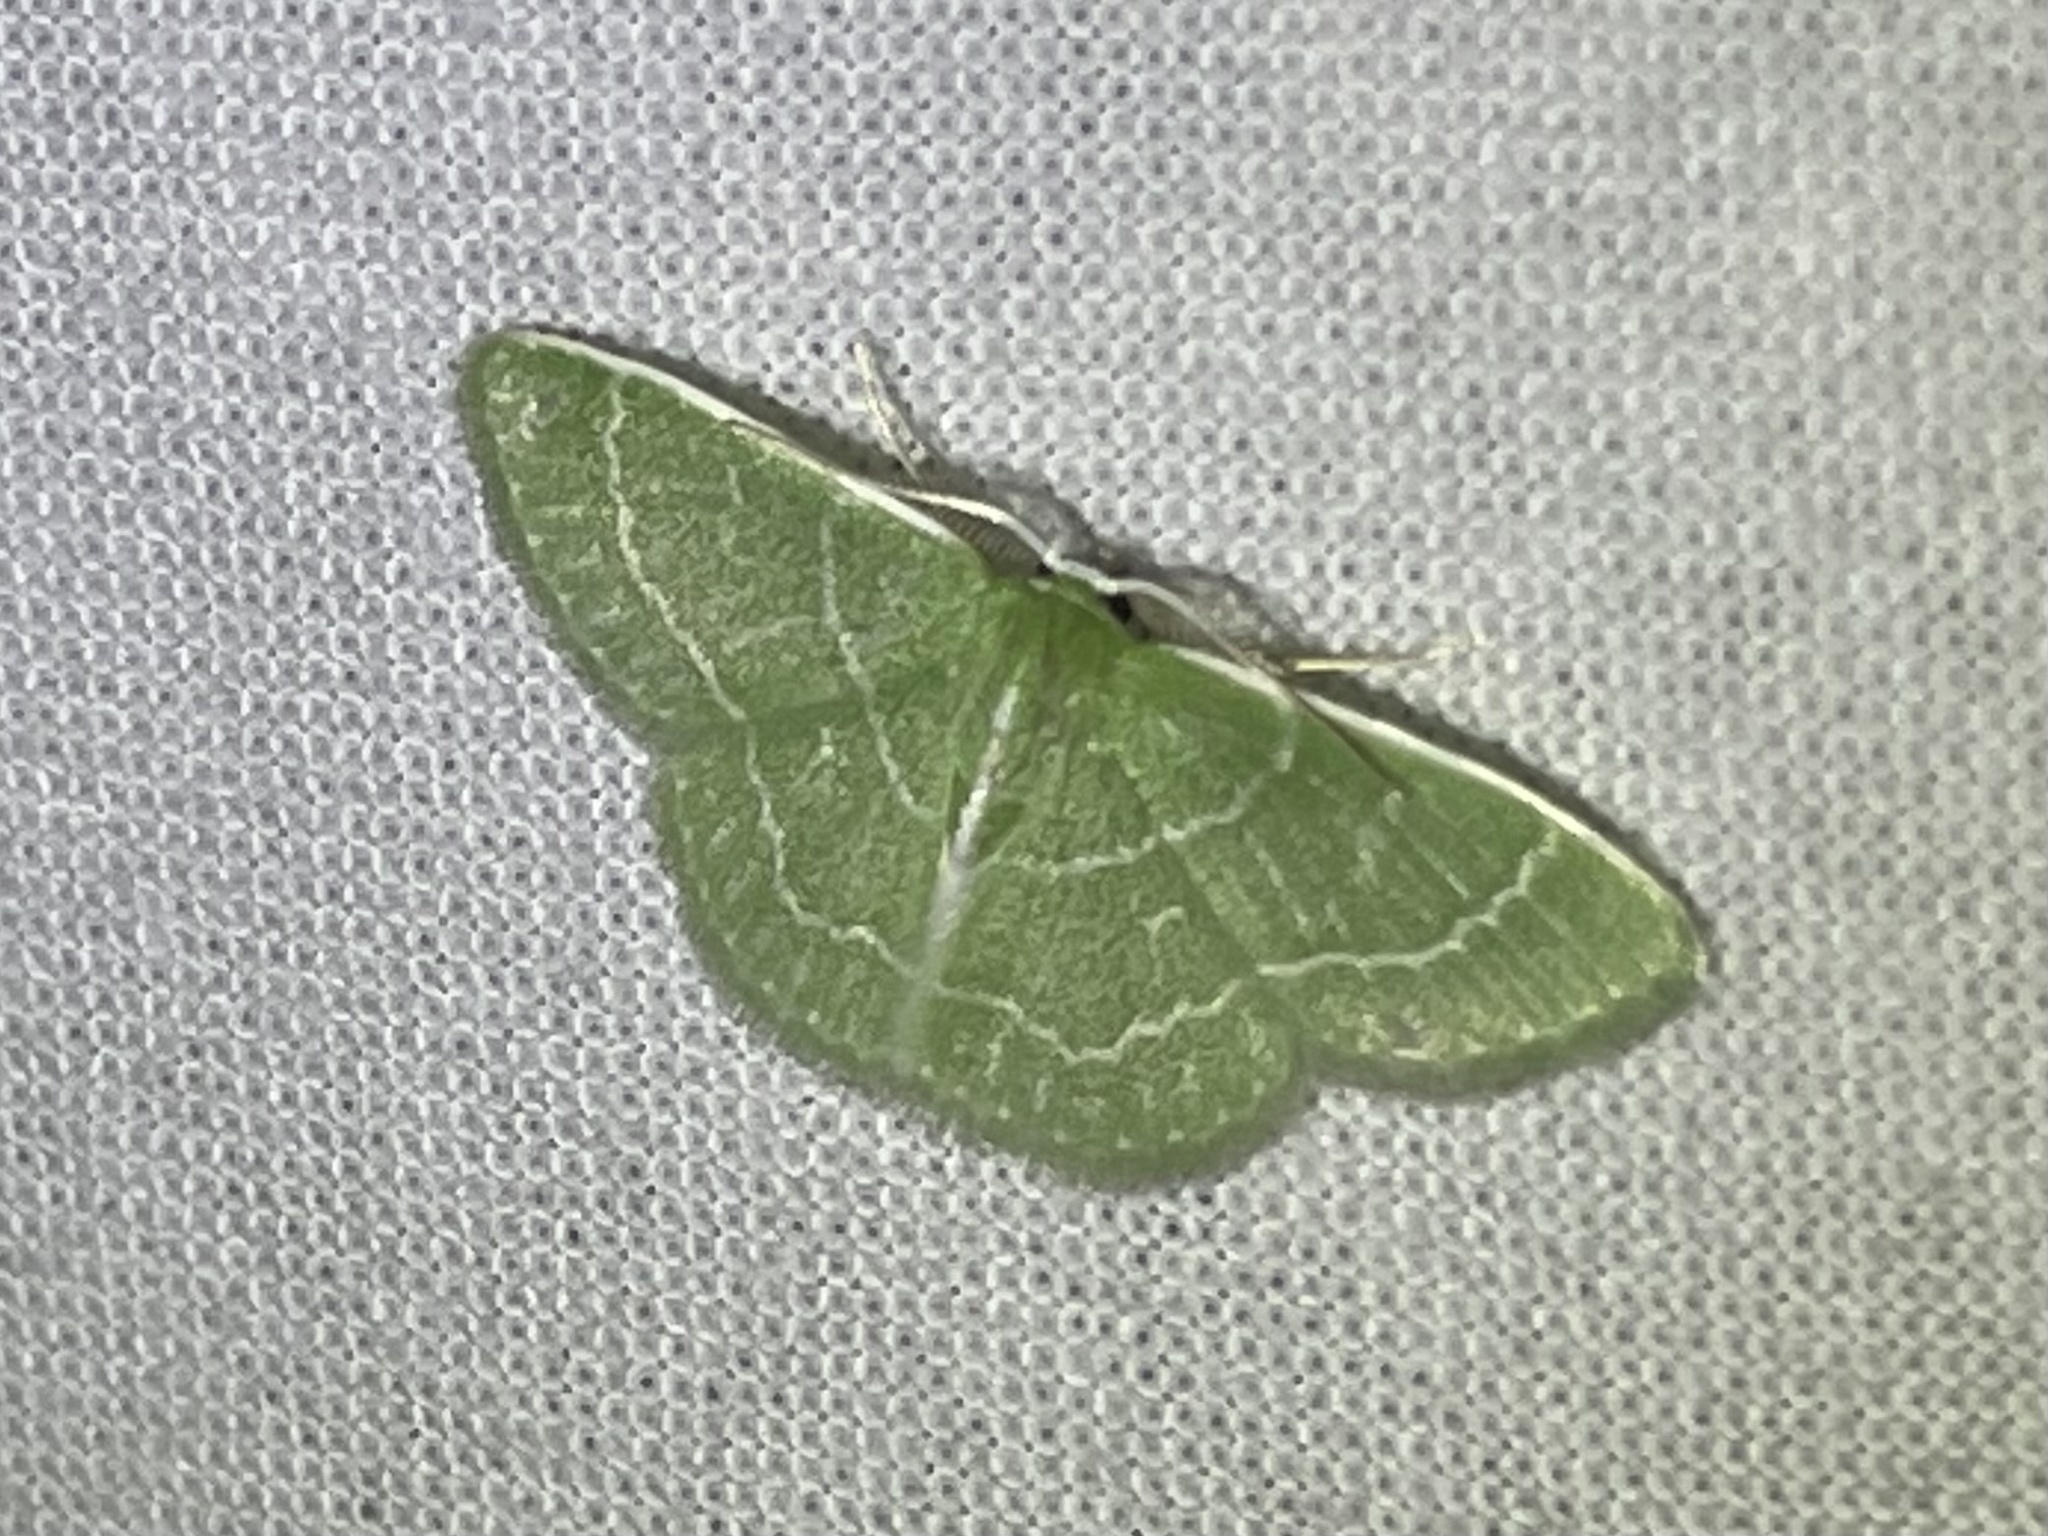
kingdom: Animalia
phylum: Arthropoda
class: Insecta
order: Lepidoptera
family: Geometridae
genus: Synchlora
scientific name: Synchlora aerata
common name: Wavy-lined emerald
